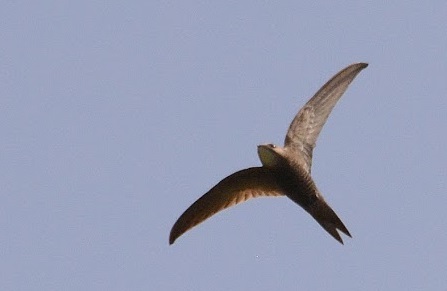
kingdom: Animalia
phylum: Chordata
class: Aves
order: Apodiformes
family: Apodidae
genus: Apus
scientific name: Apus pallidus
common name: Pallid swift
